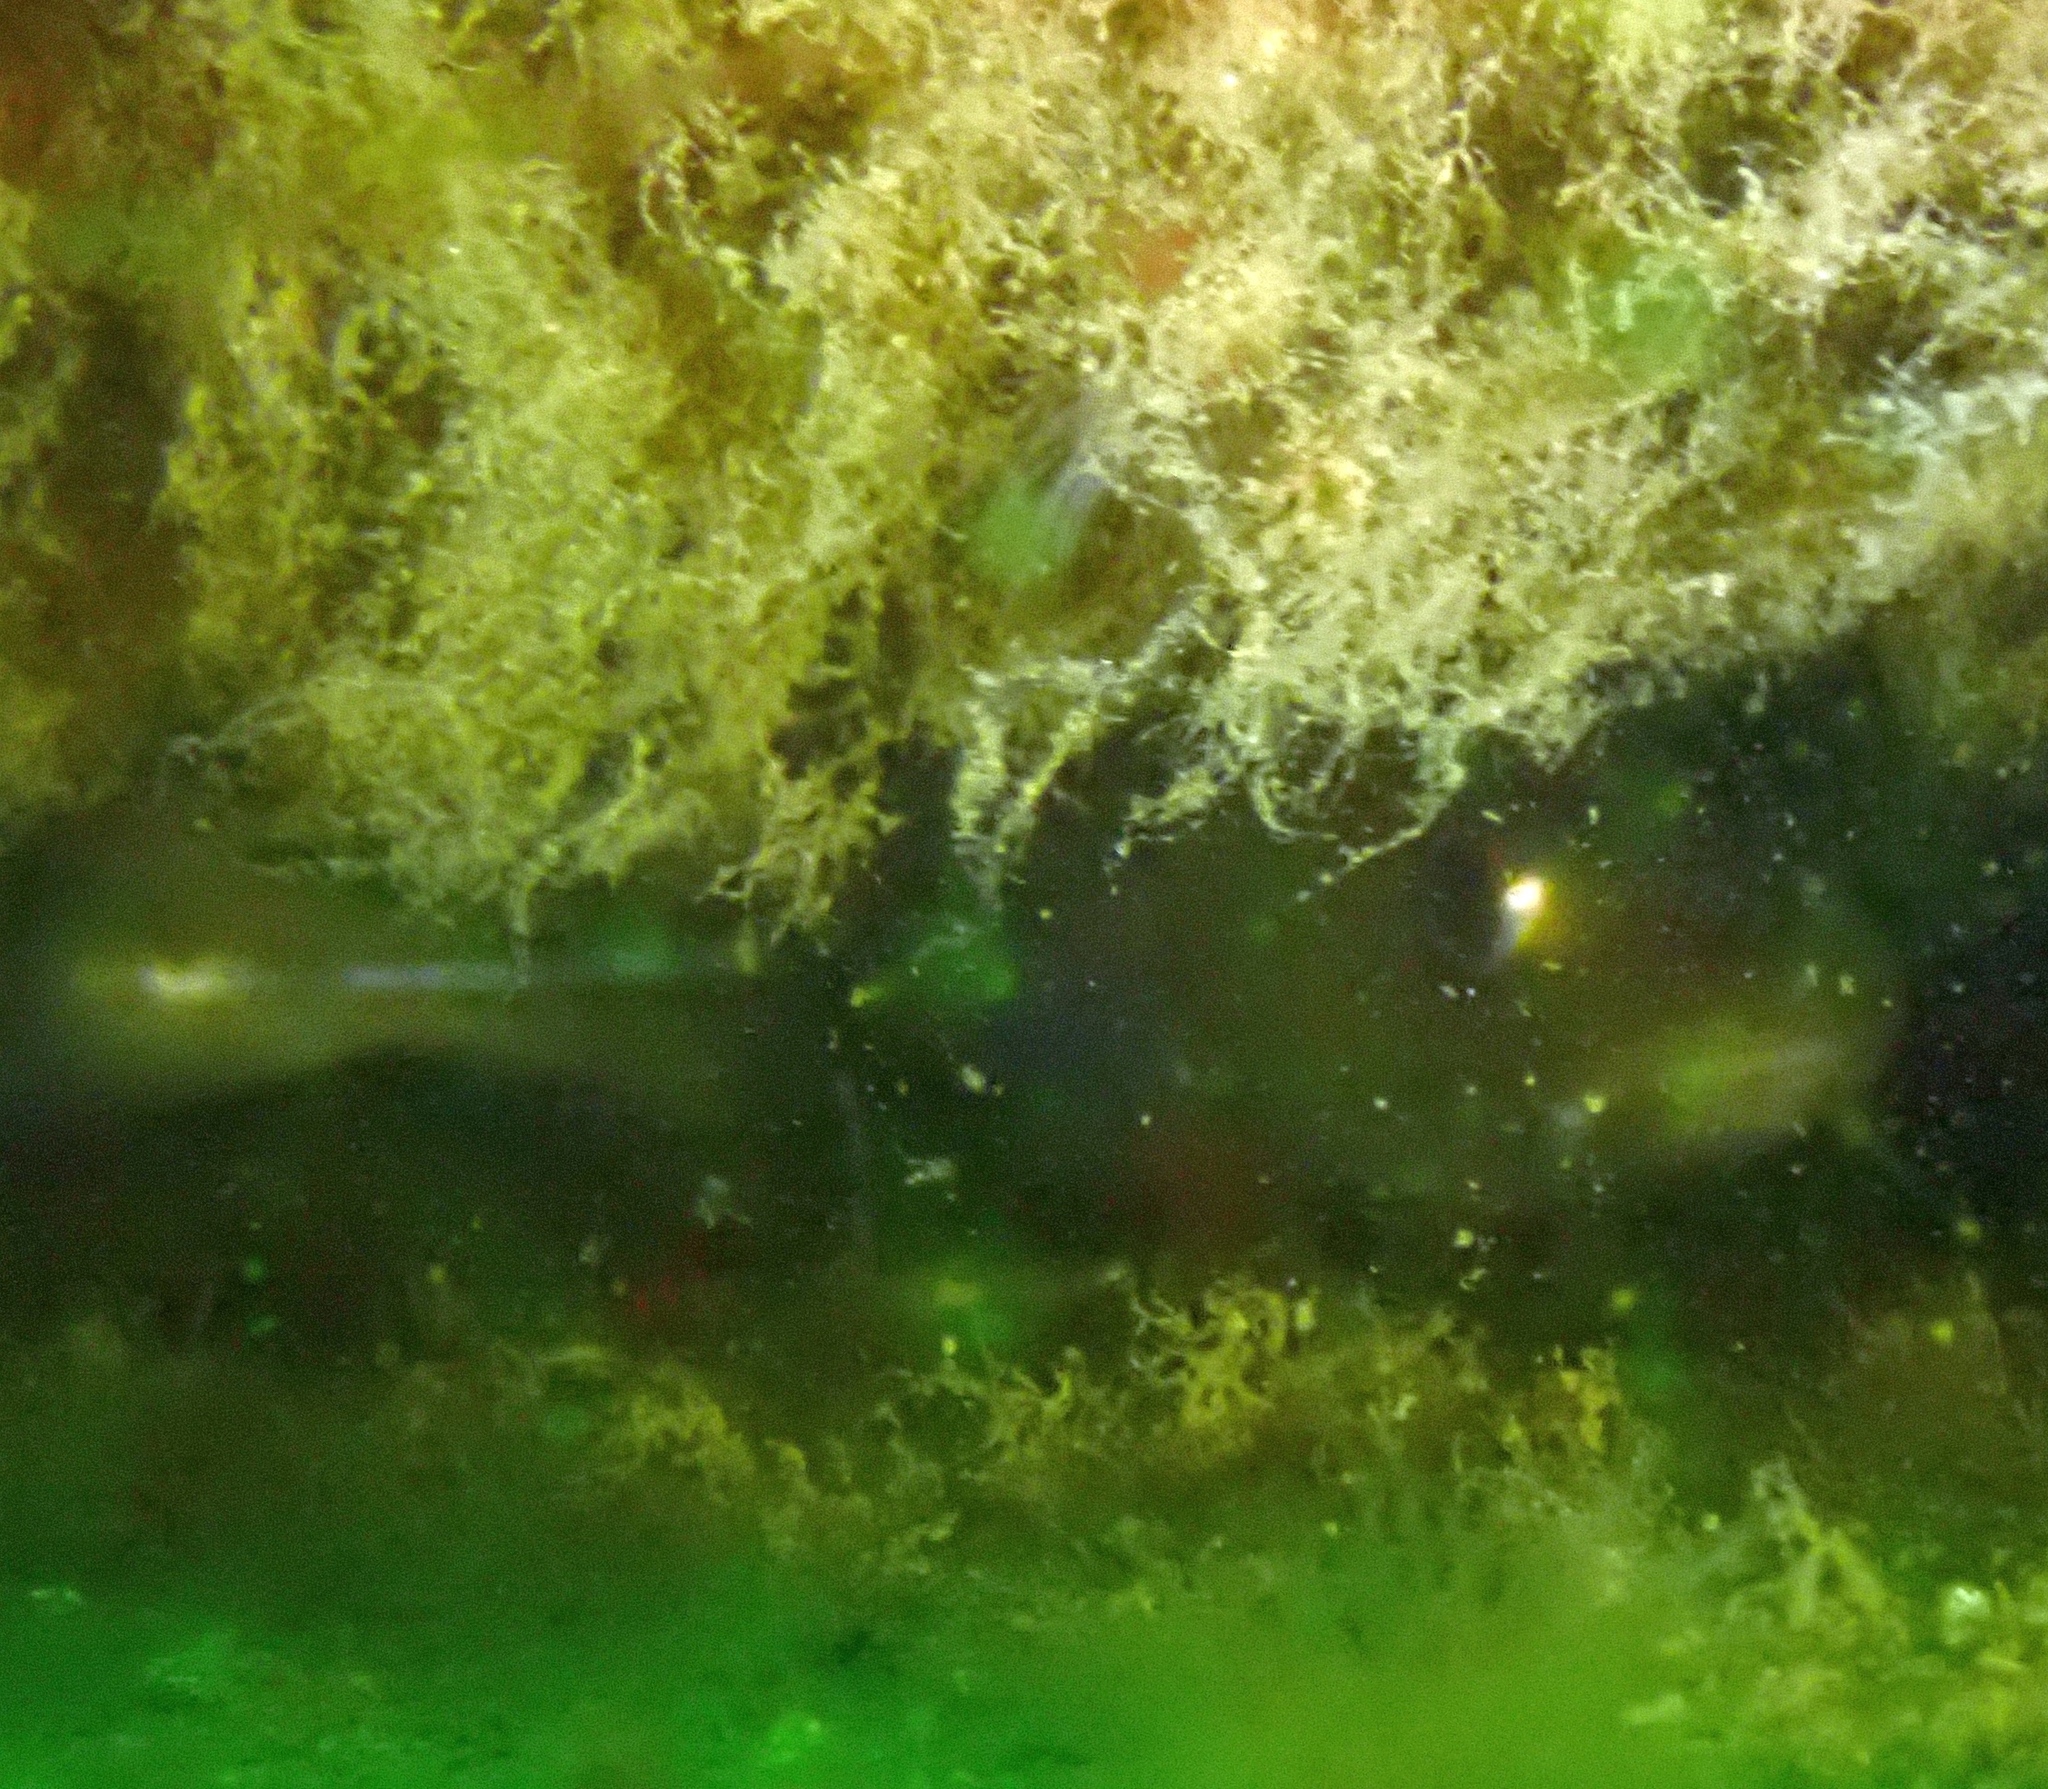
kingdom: Animalia
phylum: Chordata
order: Gadiformes
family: Gadidae
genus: Gadus
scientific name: Gadus morhua
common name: Atlantic cod
